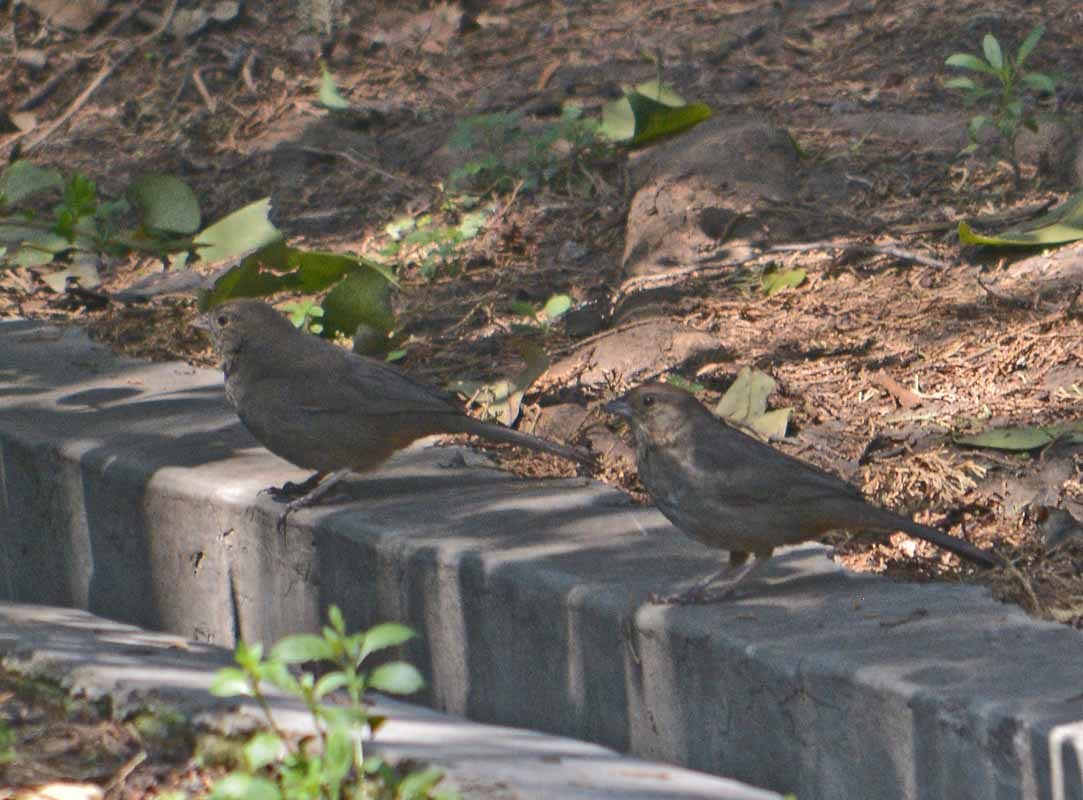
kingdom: Animalia
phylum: Chordata
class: Aves
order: Passeriformes
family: Passerellidae
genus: Melozone
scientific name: Melozone fusca
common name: Canyon towhee
